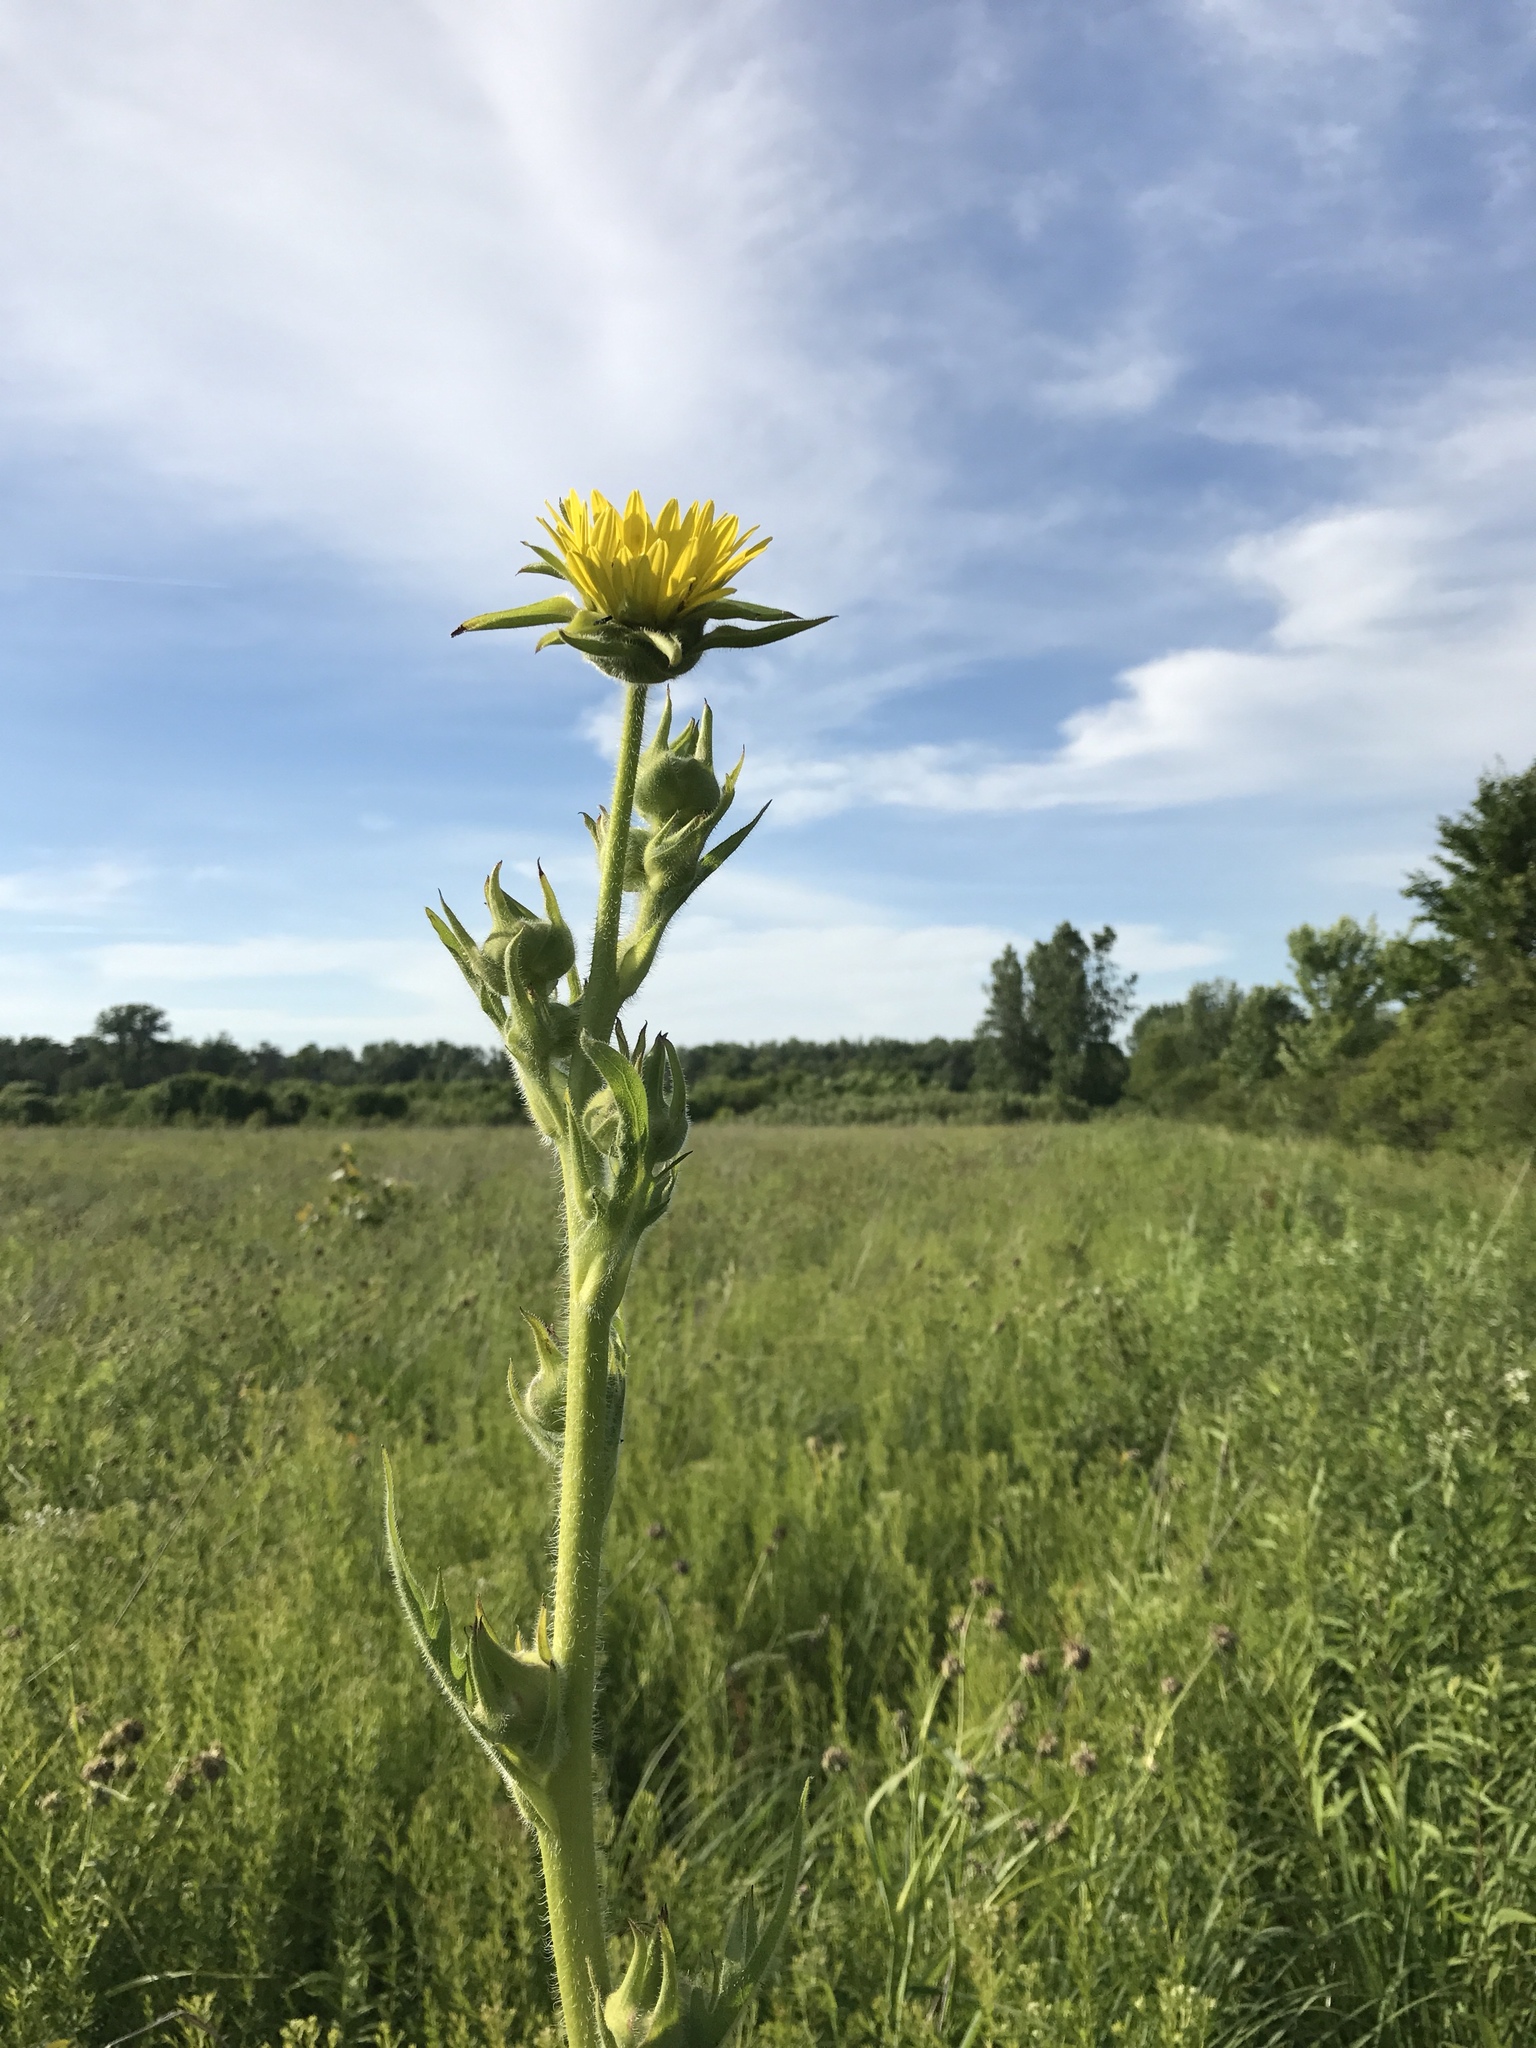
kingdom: Plantae
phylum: Tracheophyta
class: Magnoliopsida
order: Asterales
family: Asteraceae
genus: Silphium
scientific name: Silphium laciniatum
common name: Polarplant
